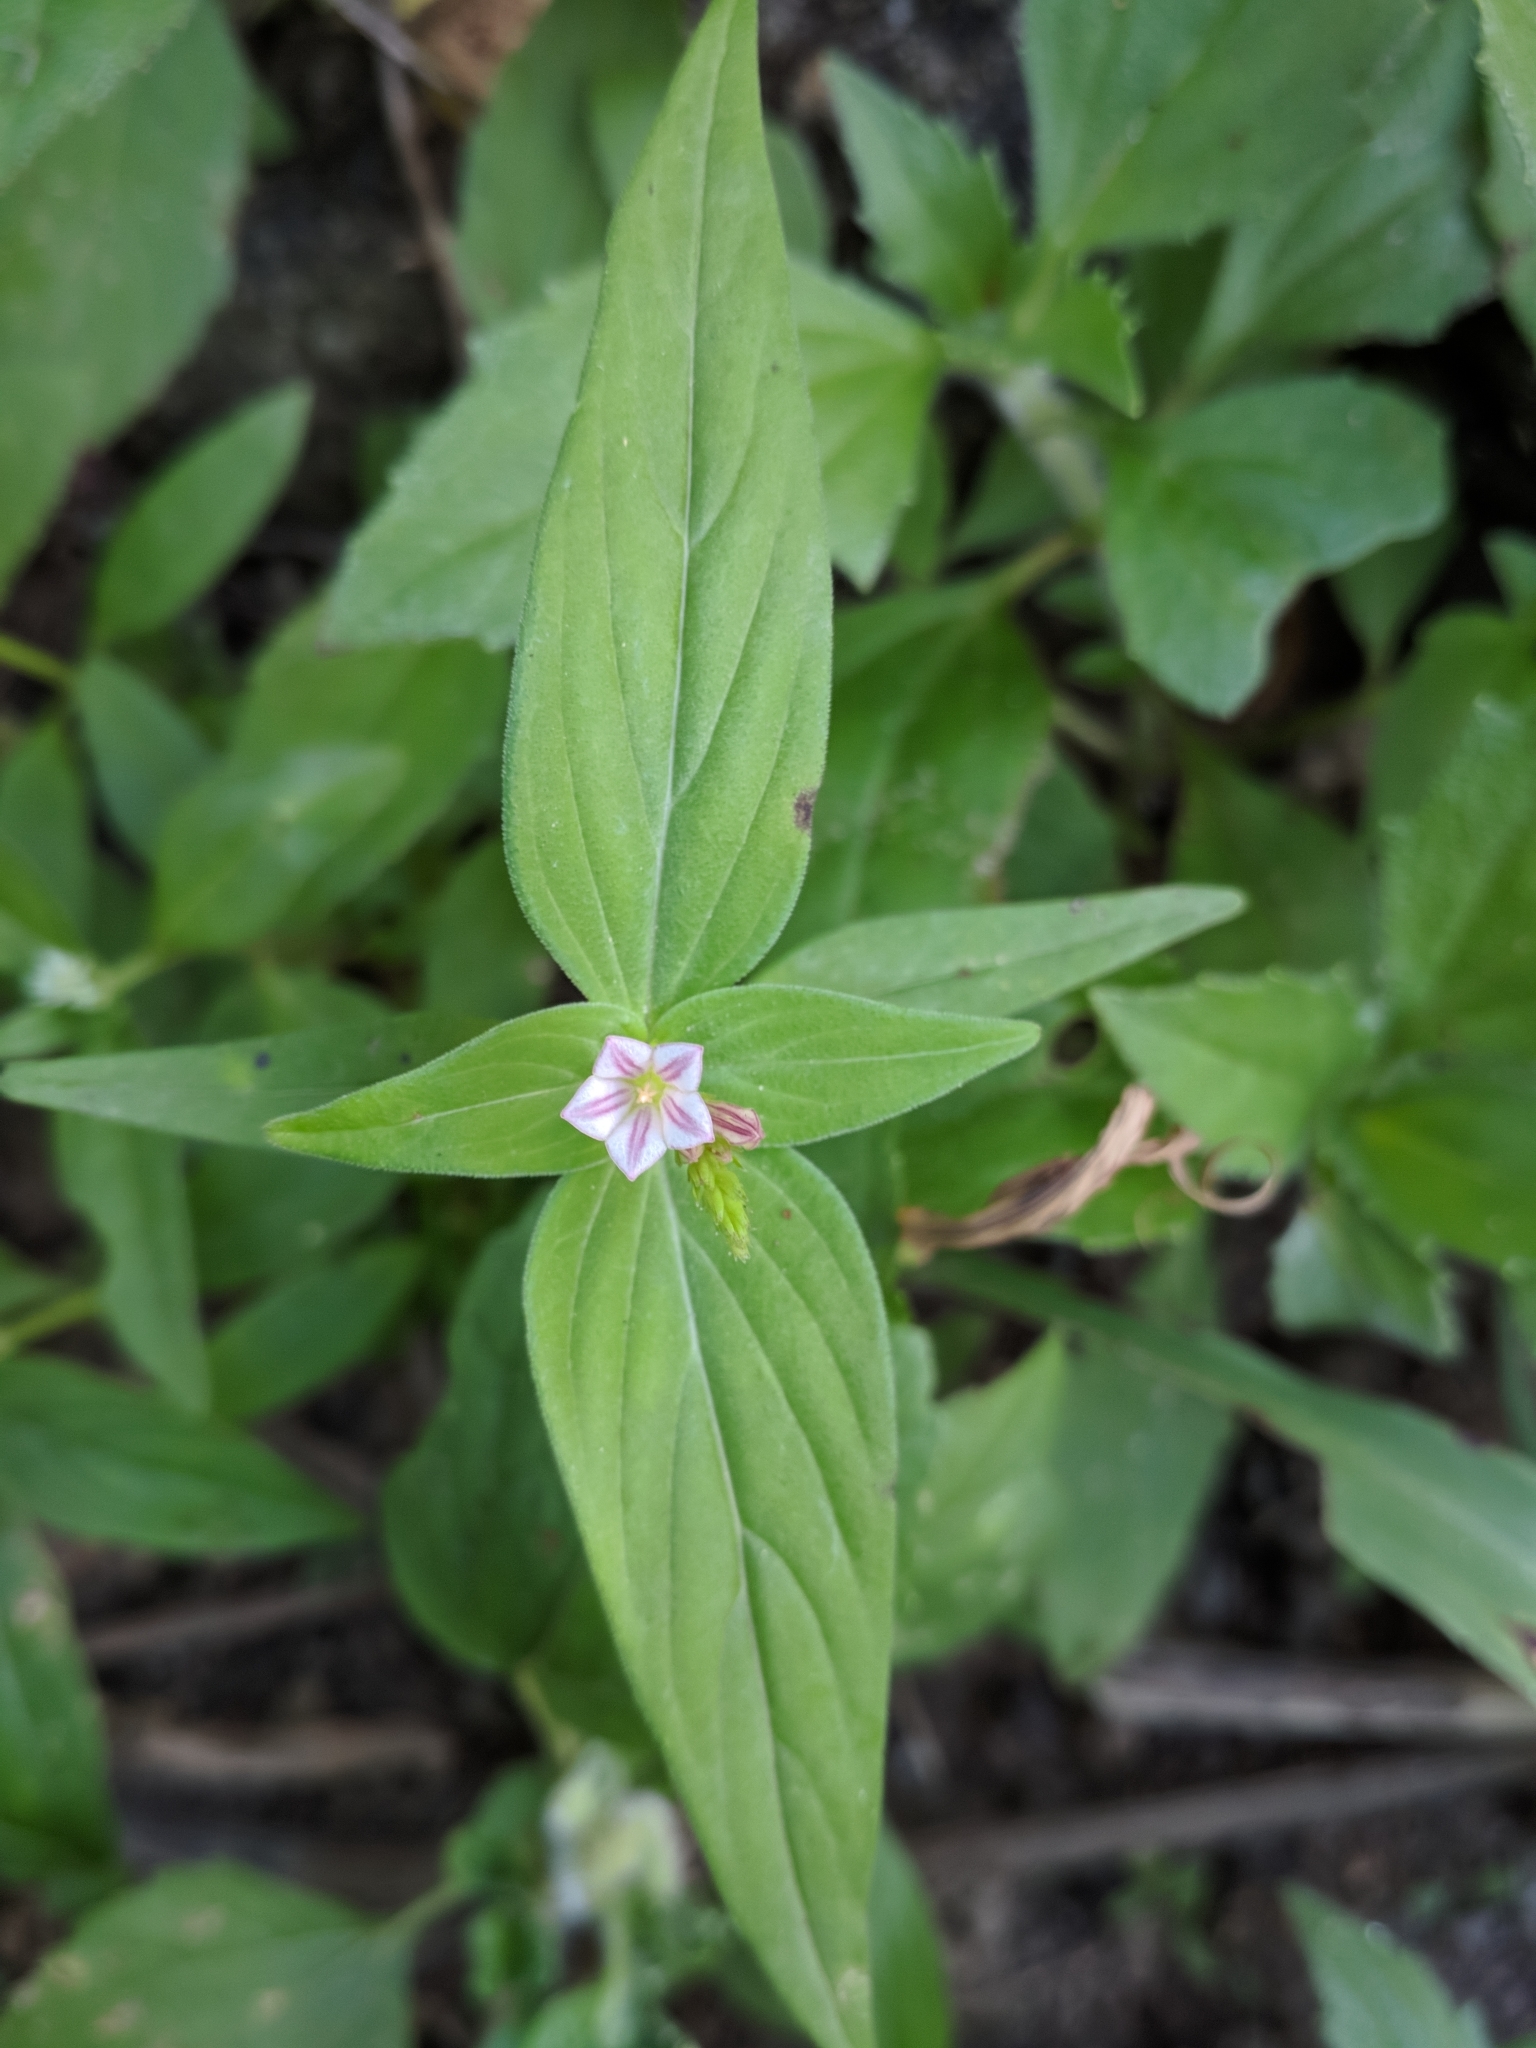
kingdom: Plantae
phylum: Tracheophyta
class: Magnoliopsida
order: Gentianales
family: Loganiaceae
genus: Spigelia
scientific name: Spigelia anthelmia
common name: West indian-pink
